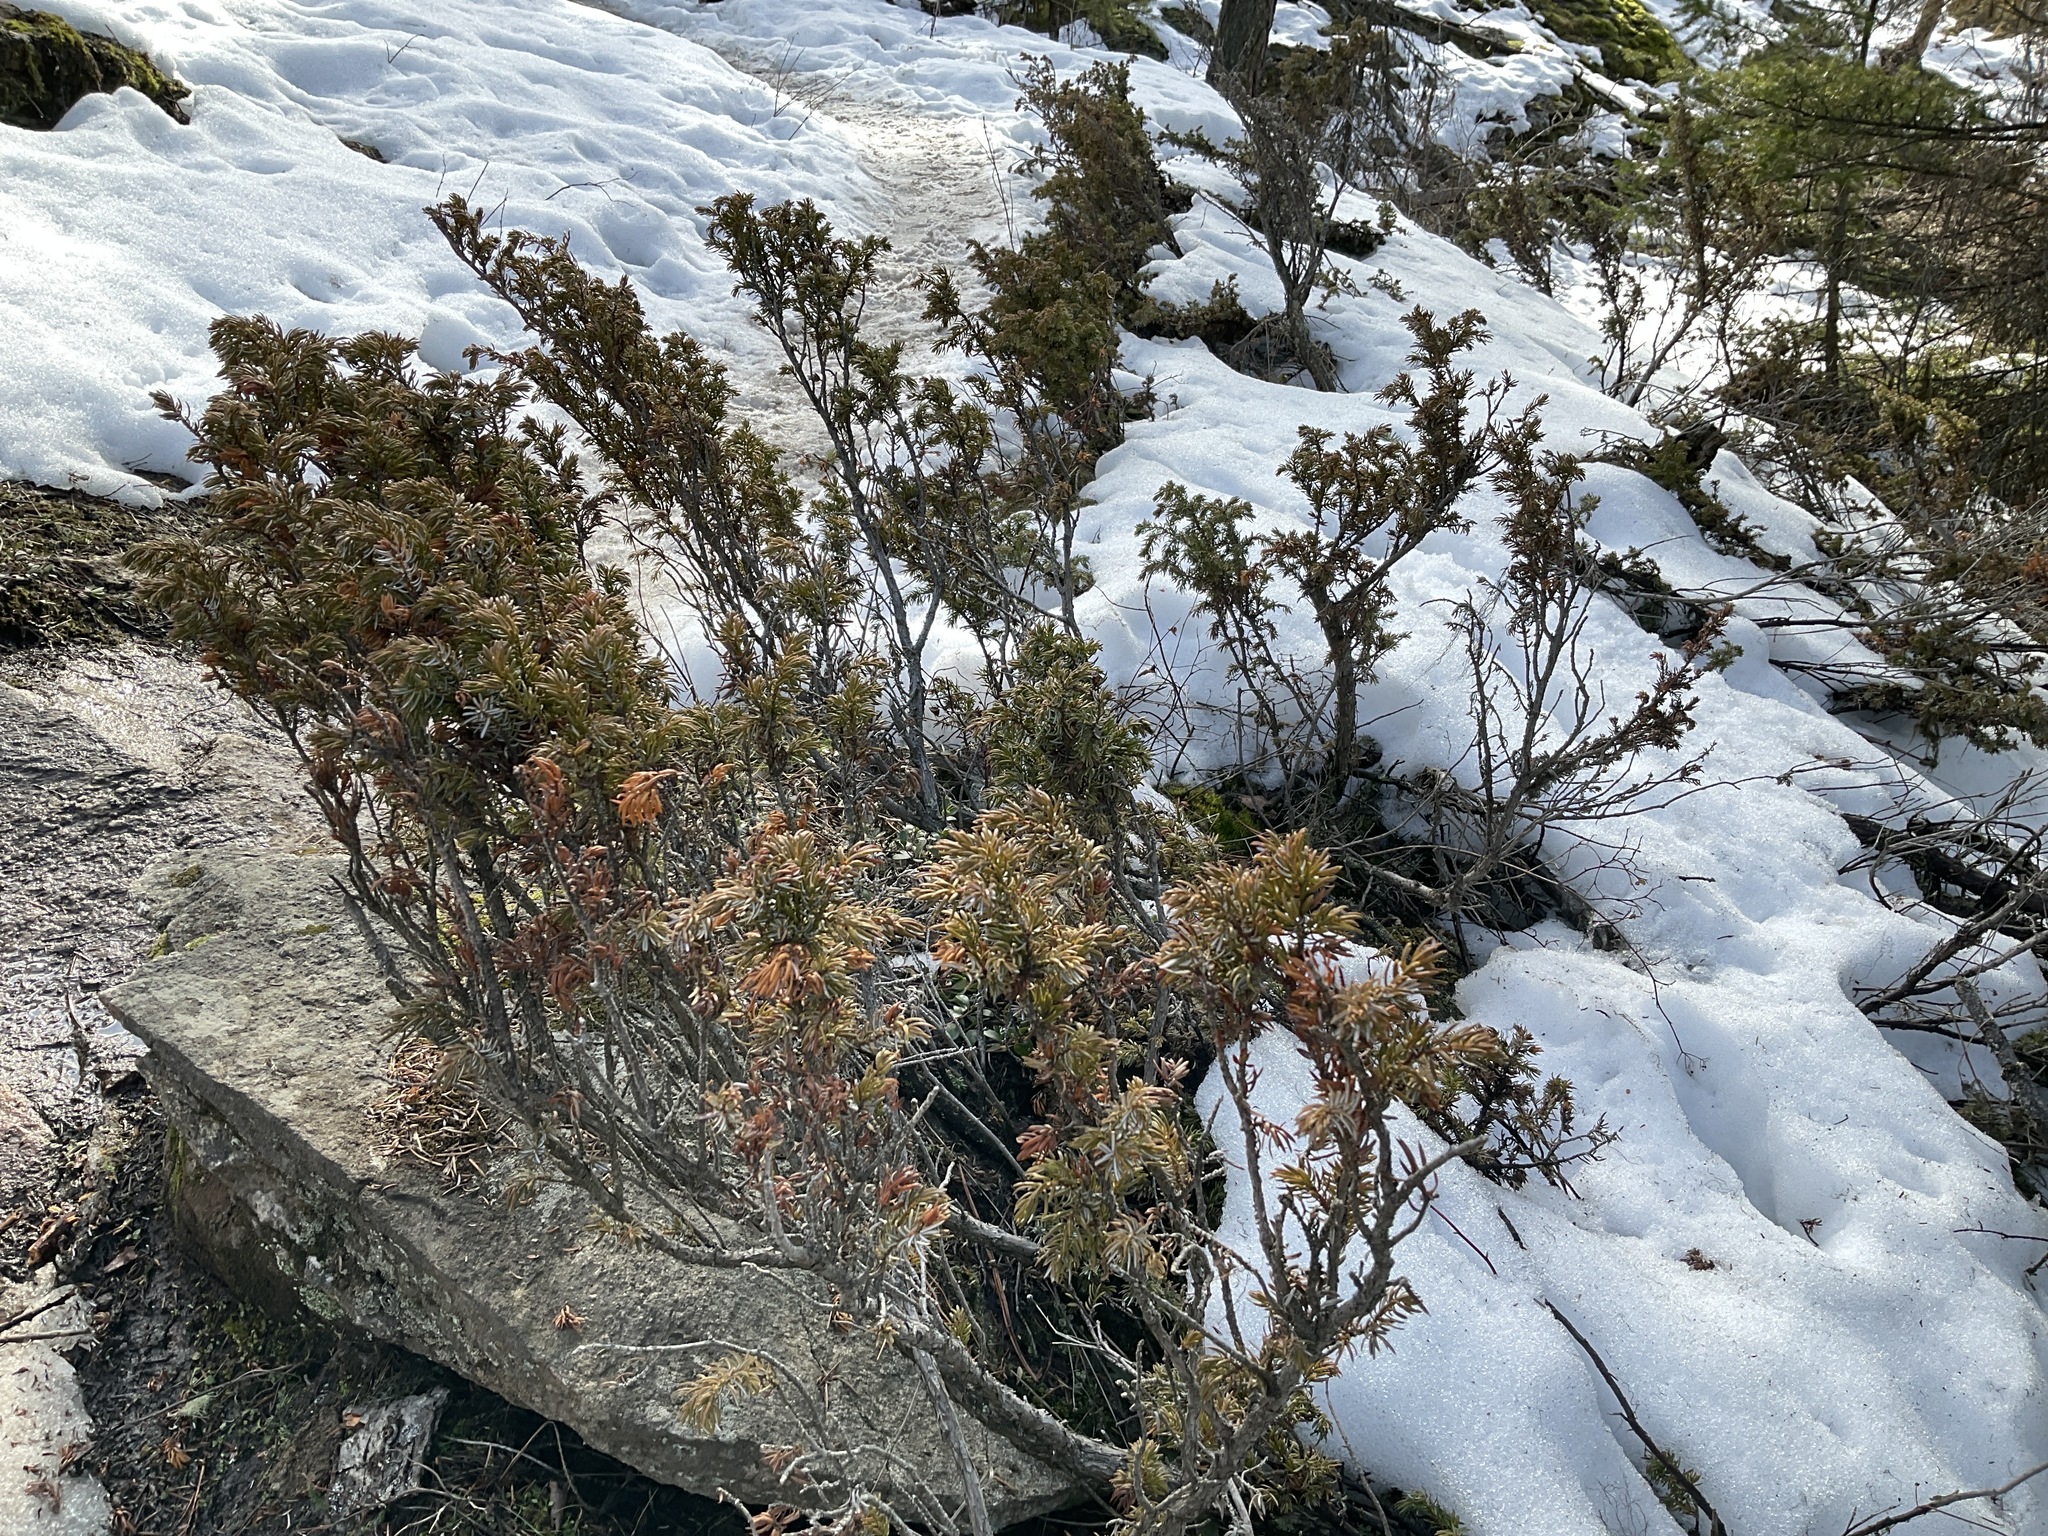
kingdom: Plantae
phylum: Tracheophyta
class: Pinopsida
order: Pinales
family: Cupressaceae
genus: Juniperus
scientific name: Juniperus communis
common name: Common juniper
